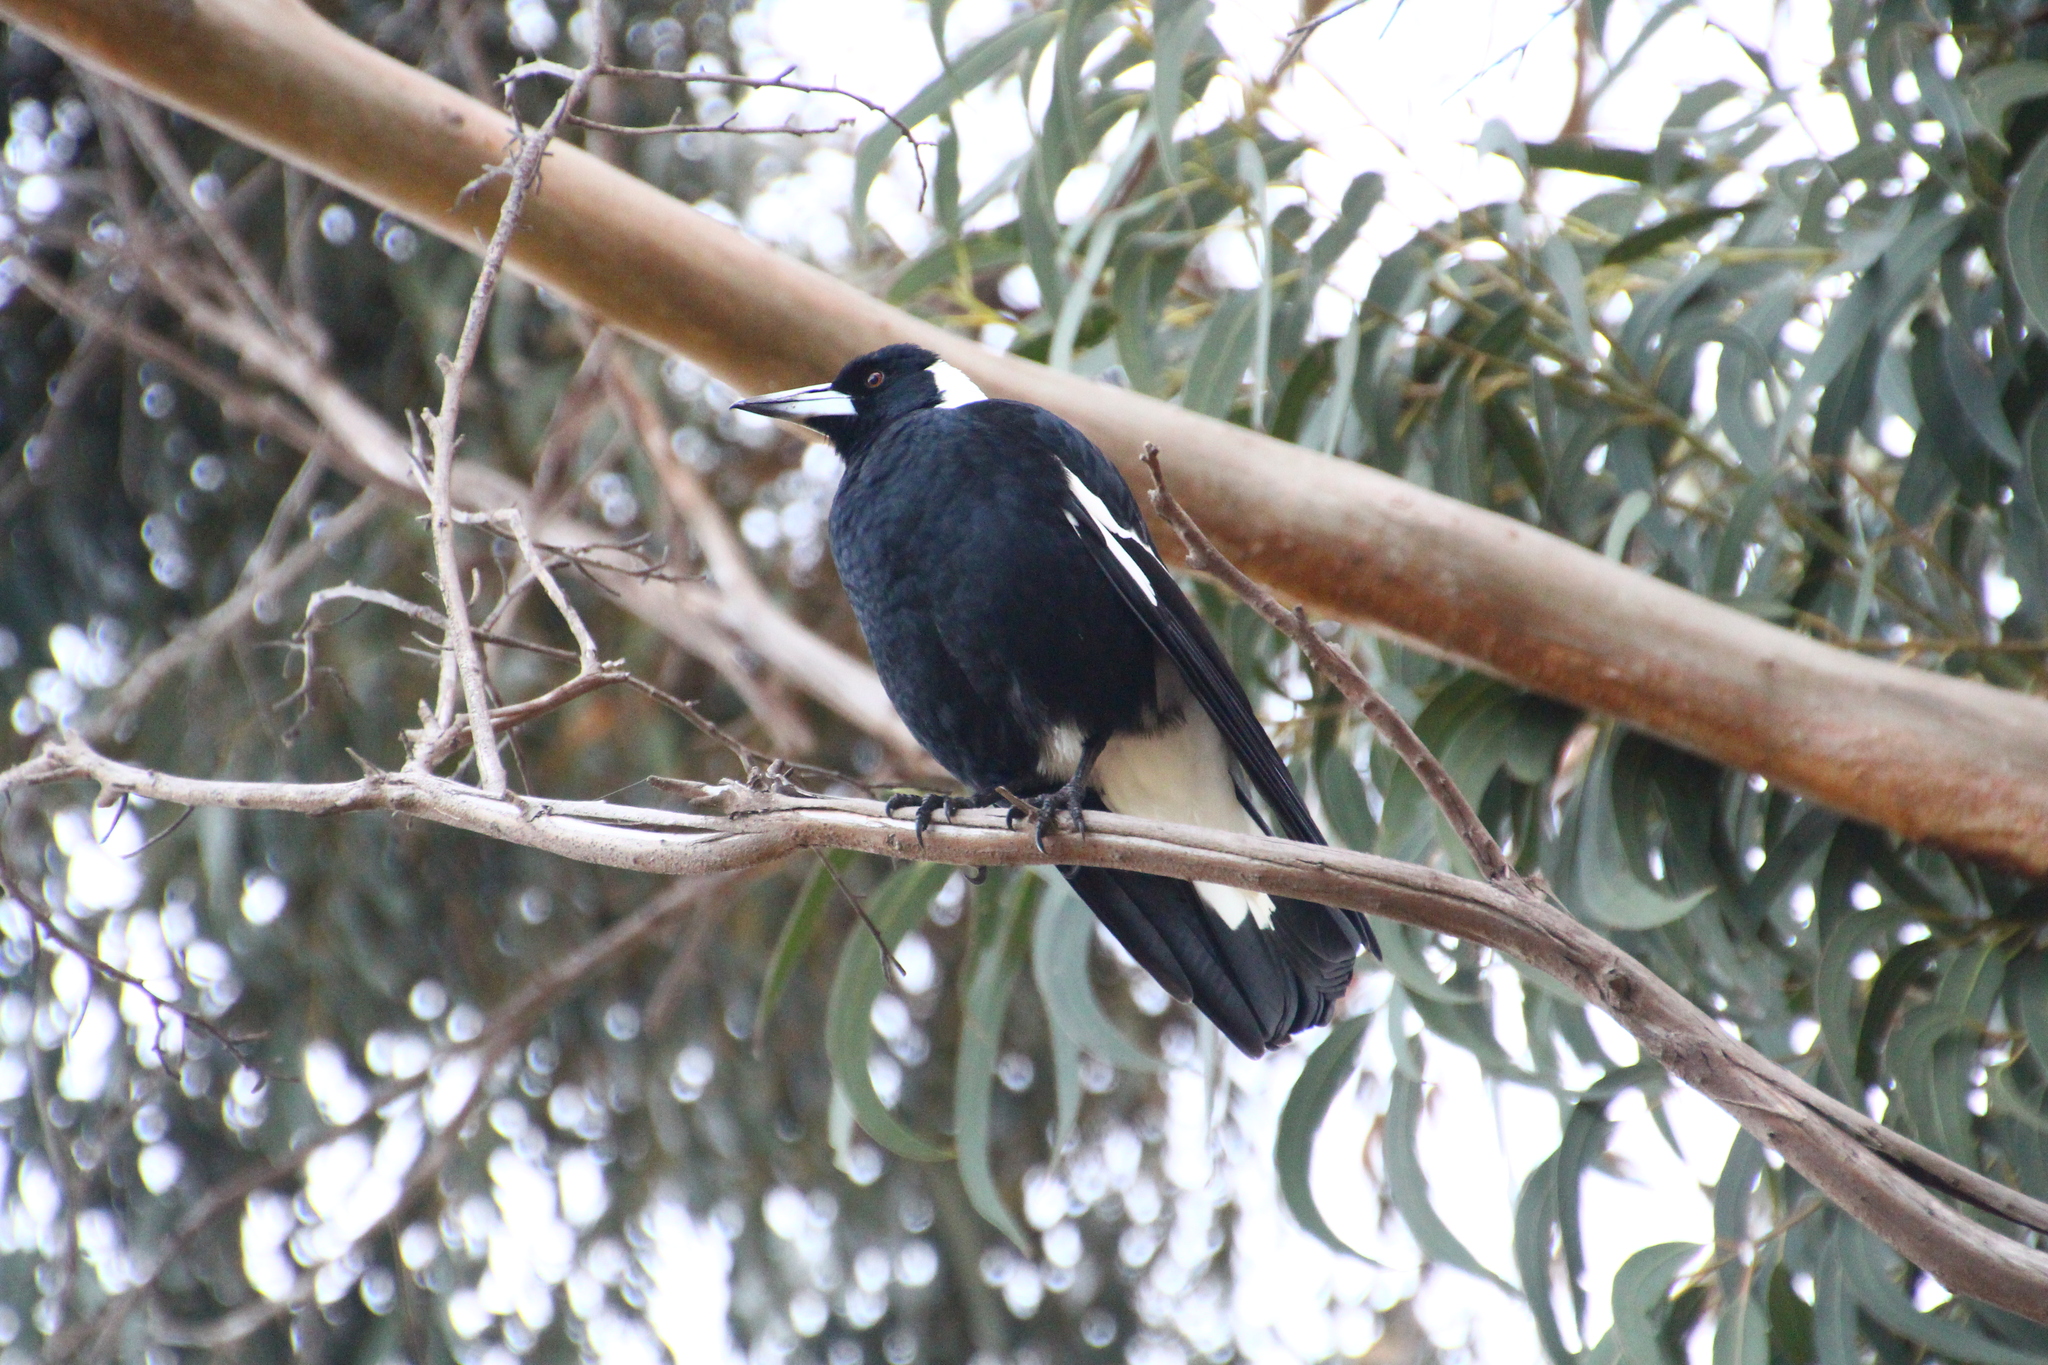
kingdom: Animalia
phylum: Chordata
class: Aves
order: Passeriformes
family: Cracticidae
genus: Gymnorhina
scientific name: Gymnorhina tibicen
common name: Australian magpie
